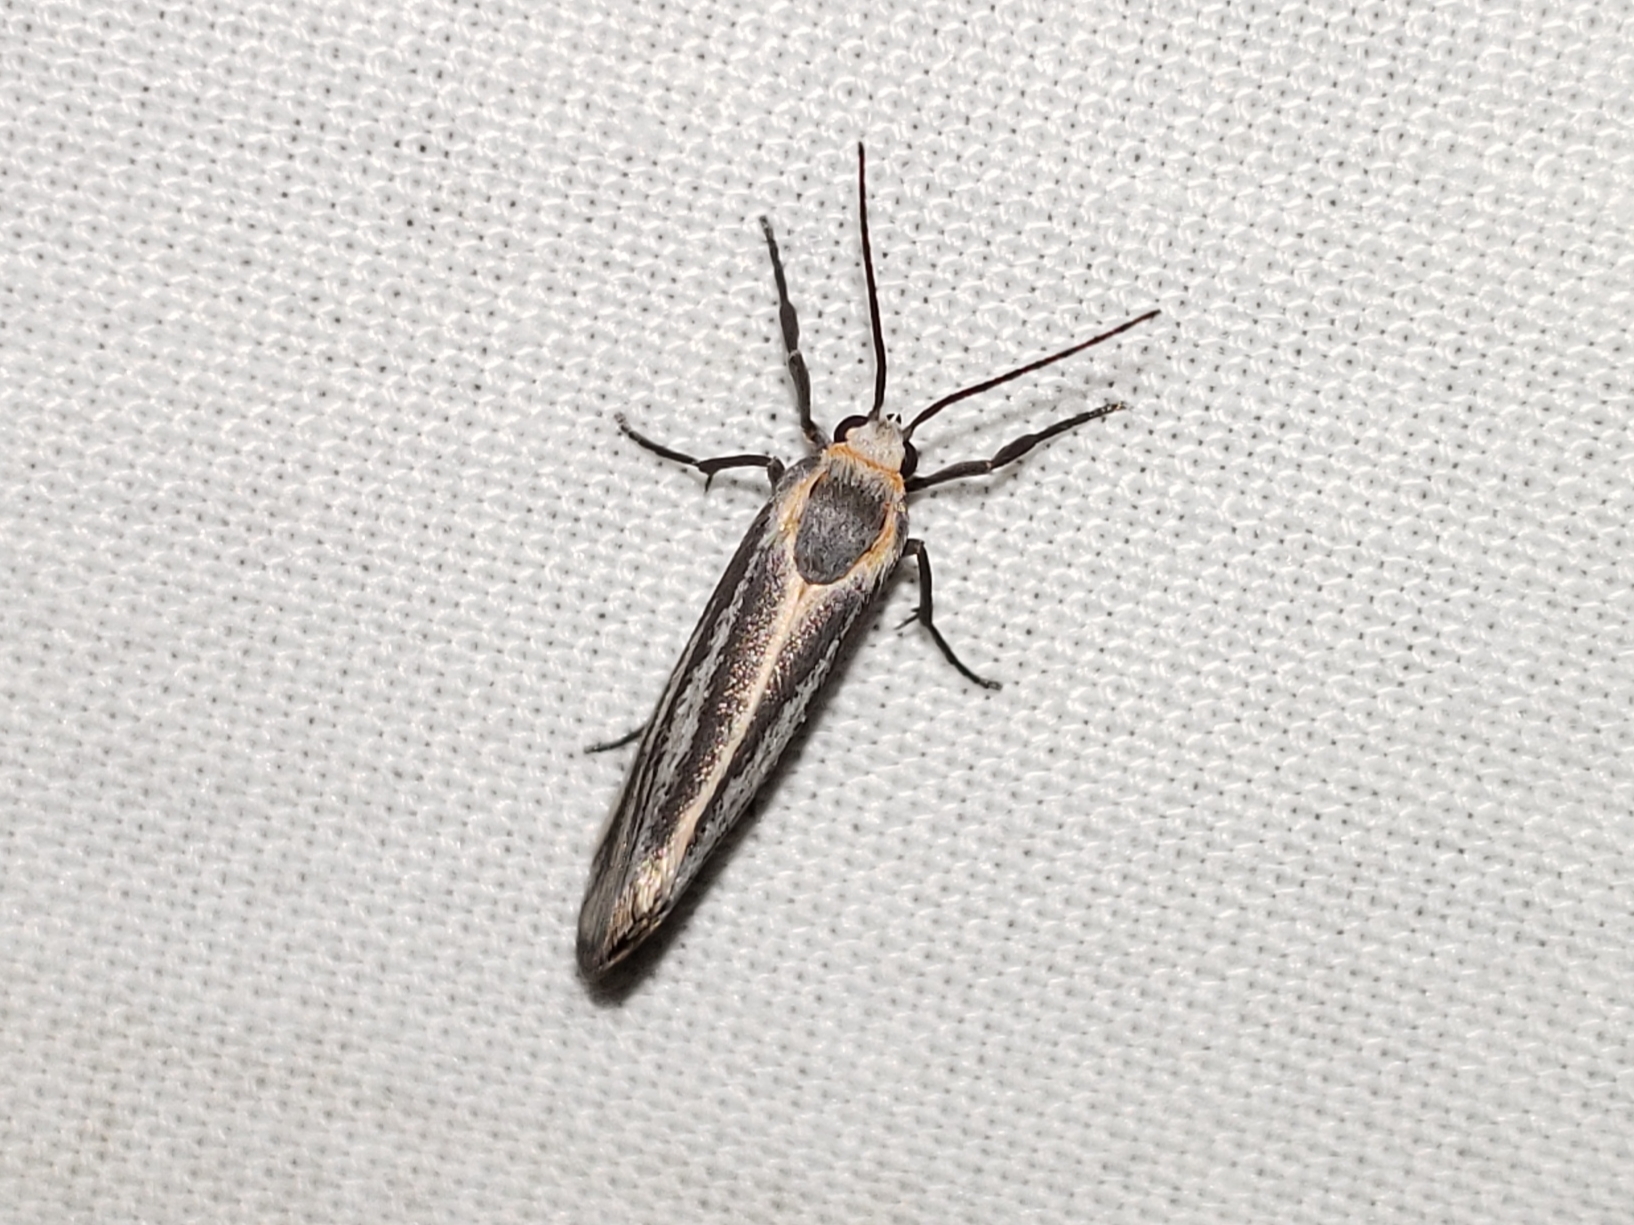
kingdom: Animalia
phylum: Arthropoda
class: Insecta
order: Lepidoptera
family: Erebidae
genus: Cisthene
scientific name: Cisthene striata
